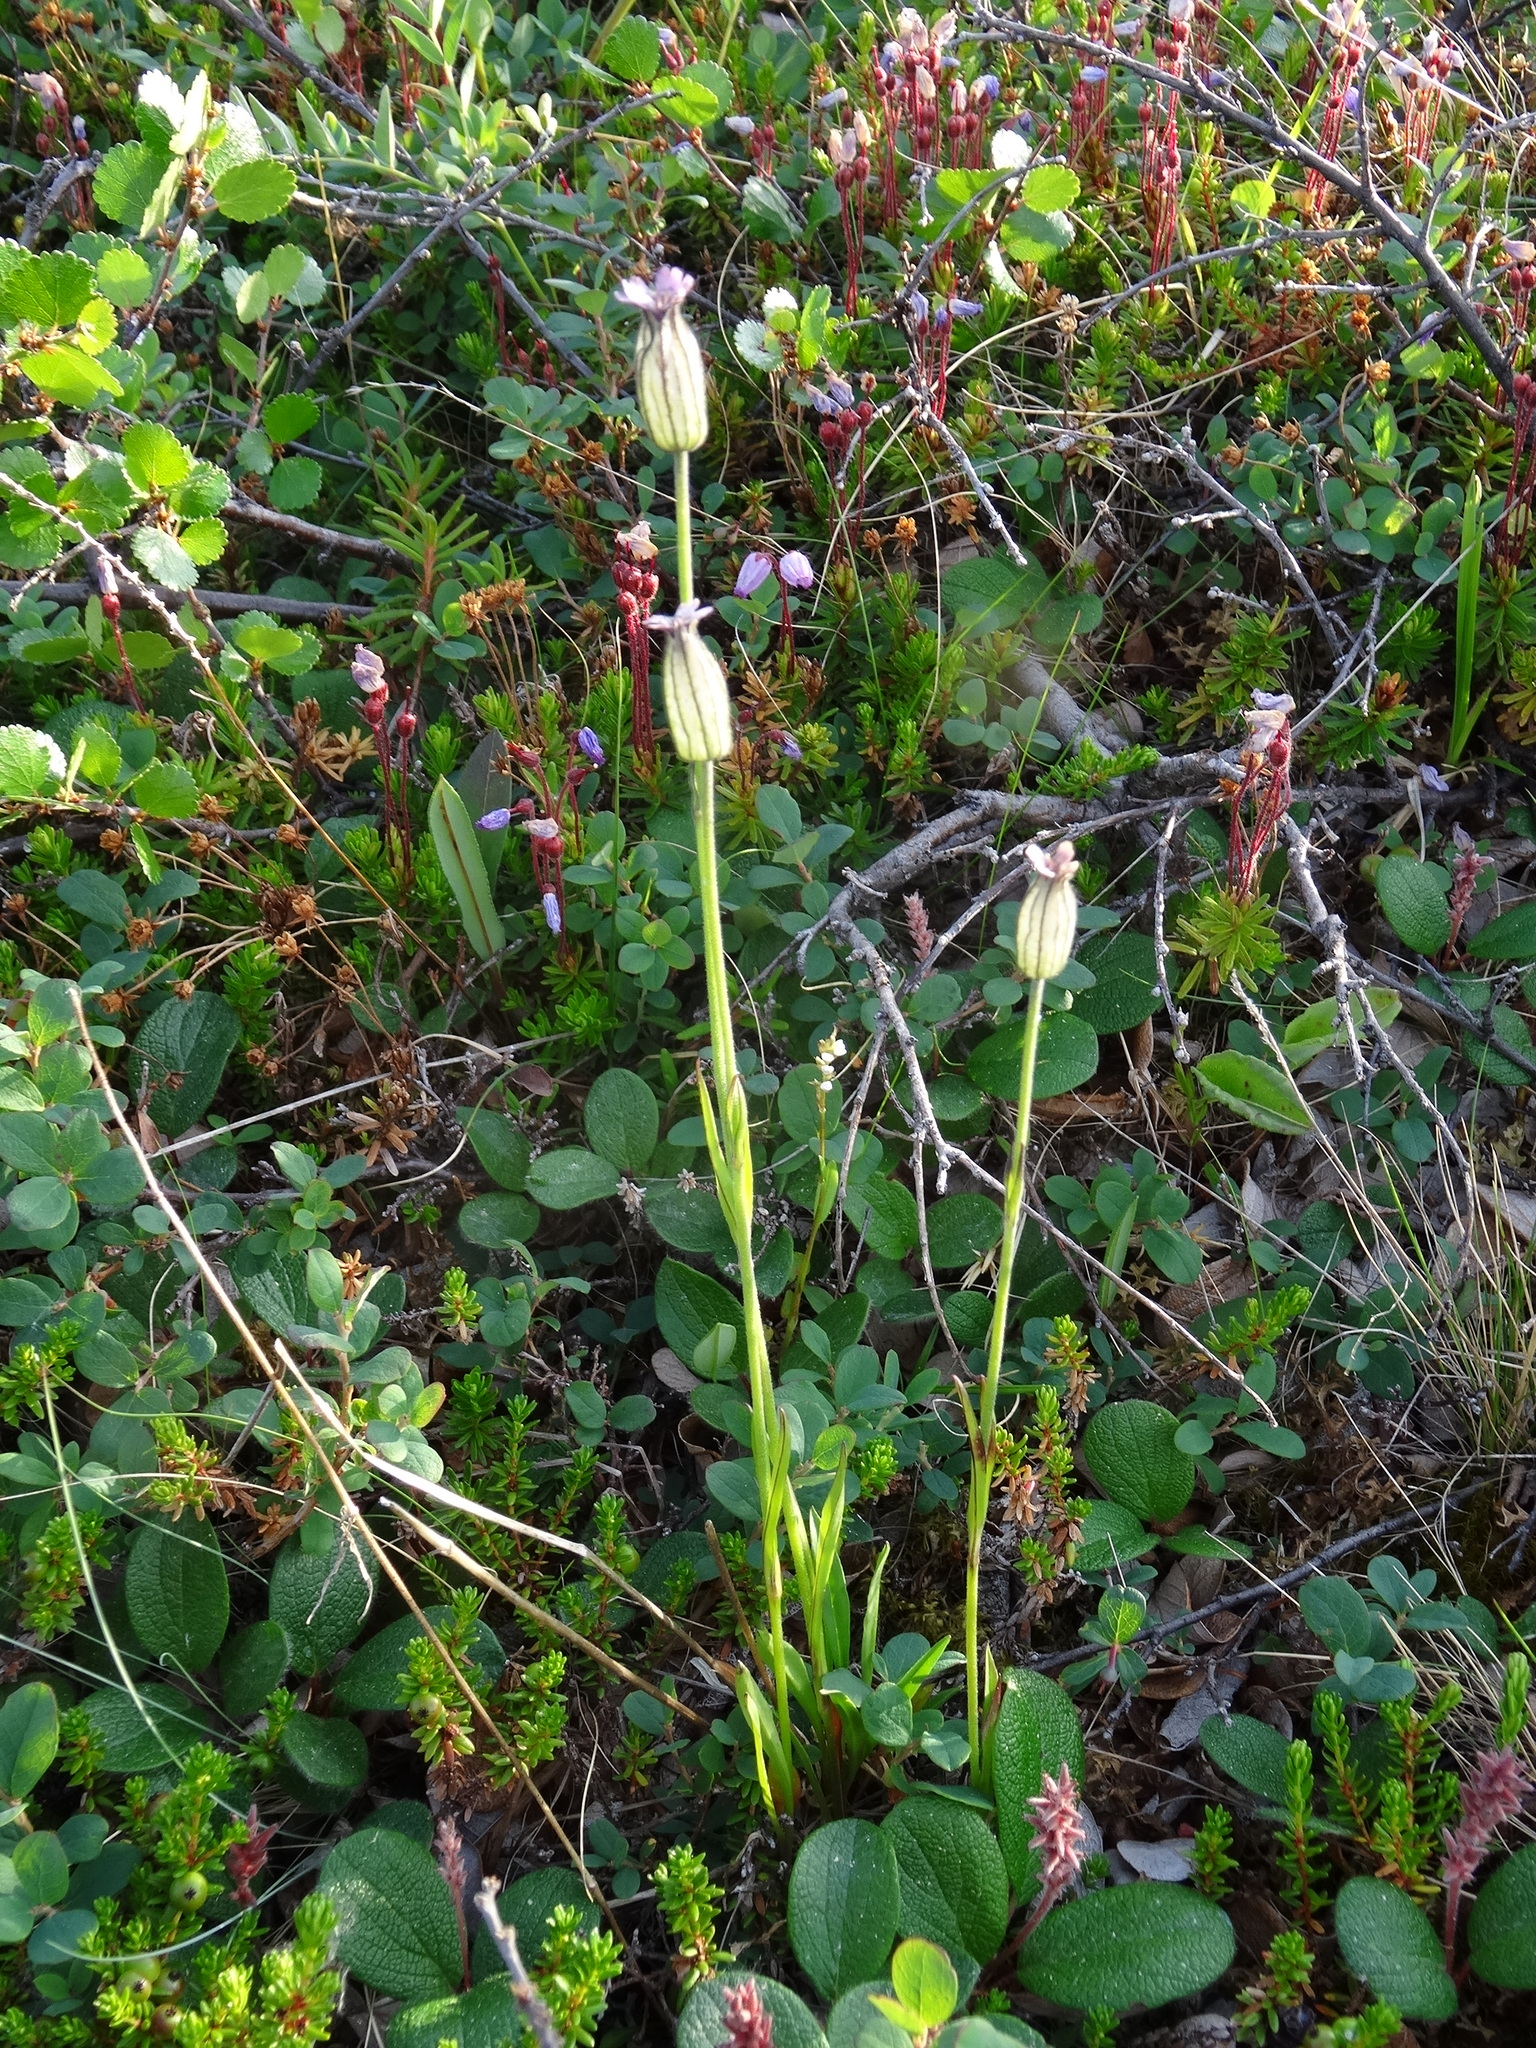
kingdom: Plantae
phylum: Tracheophyta
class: Magnoliopsida
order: Caryophyllales
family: Caryophyllaceae
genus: Silene
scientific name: Silene wahlbergella
